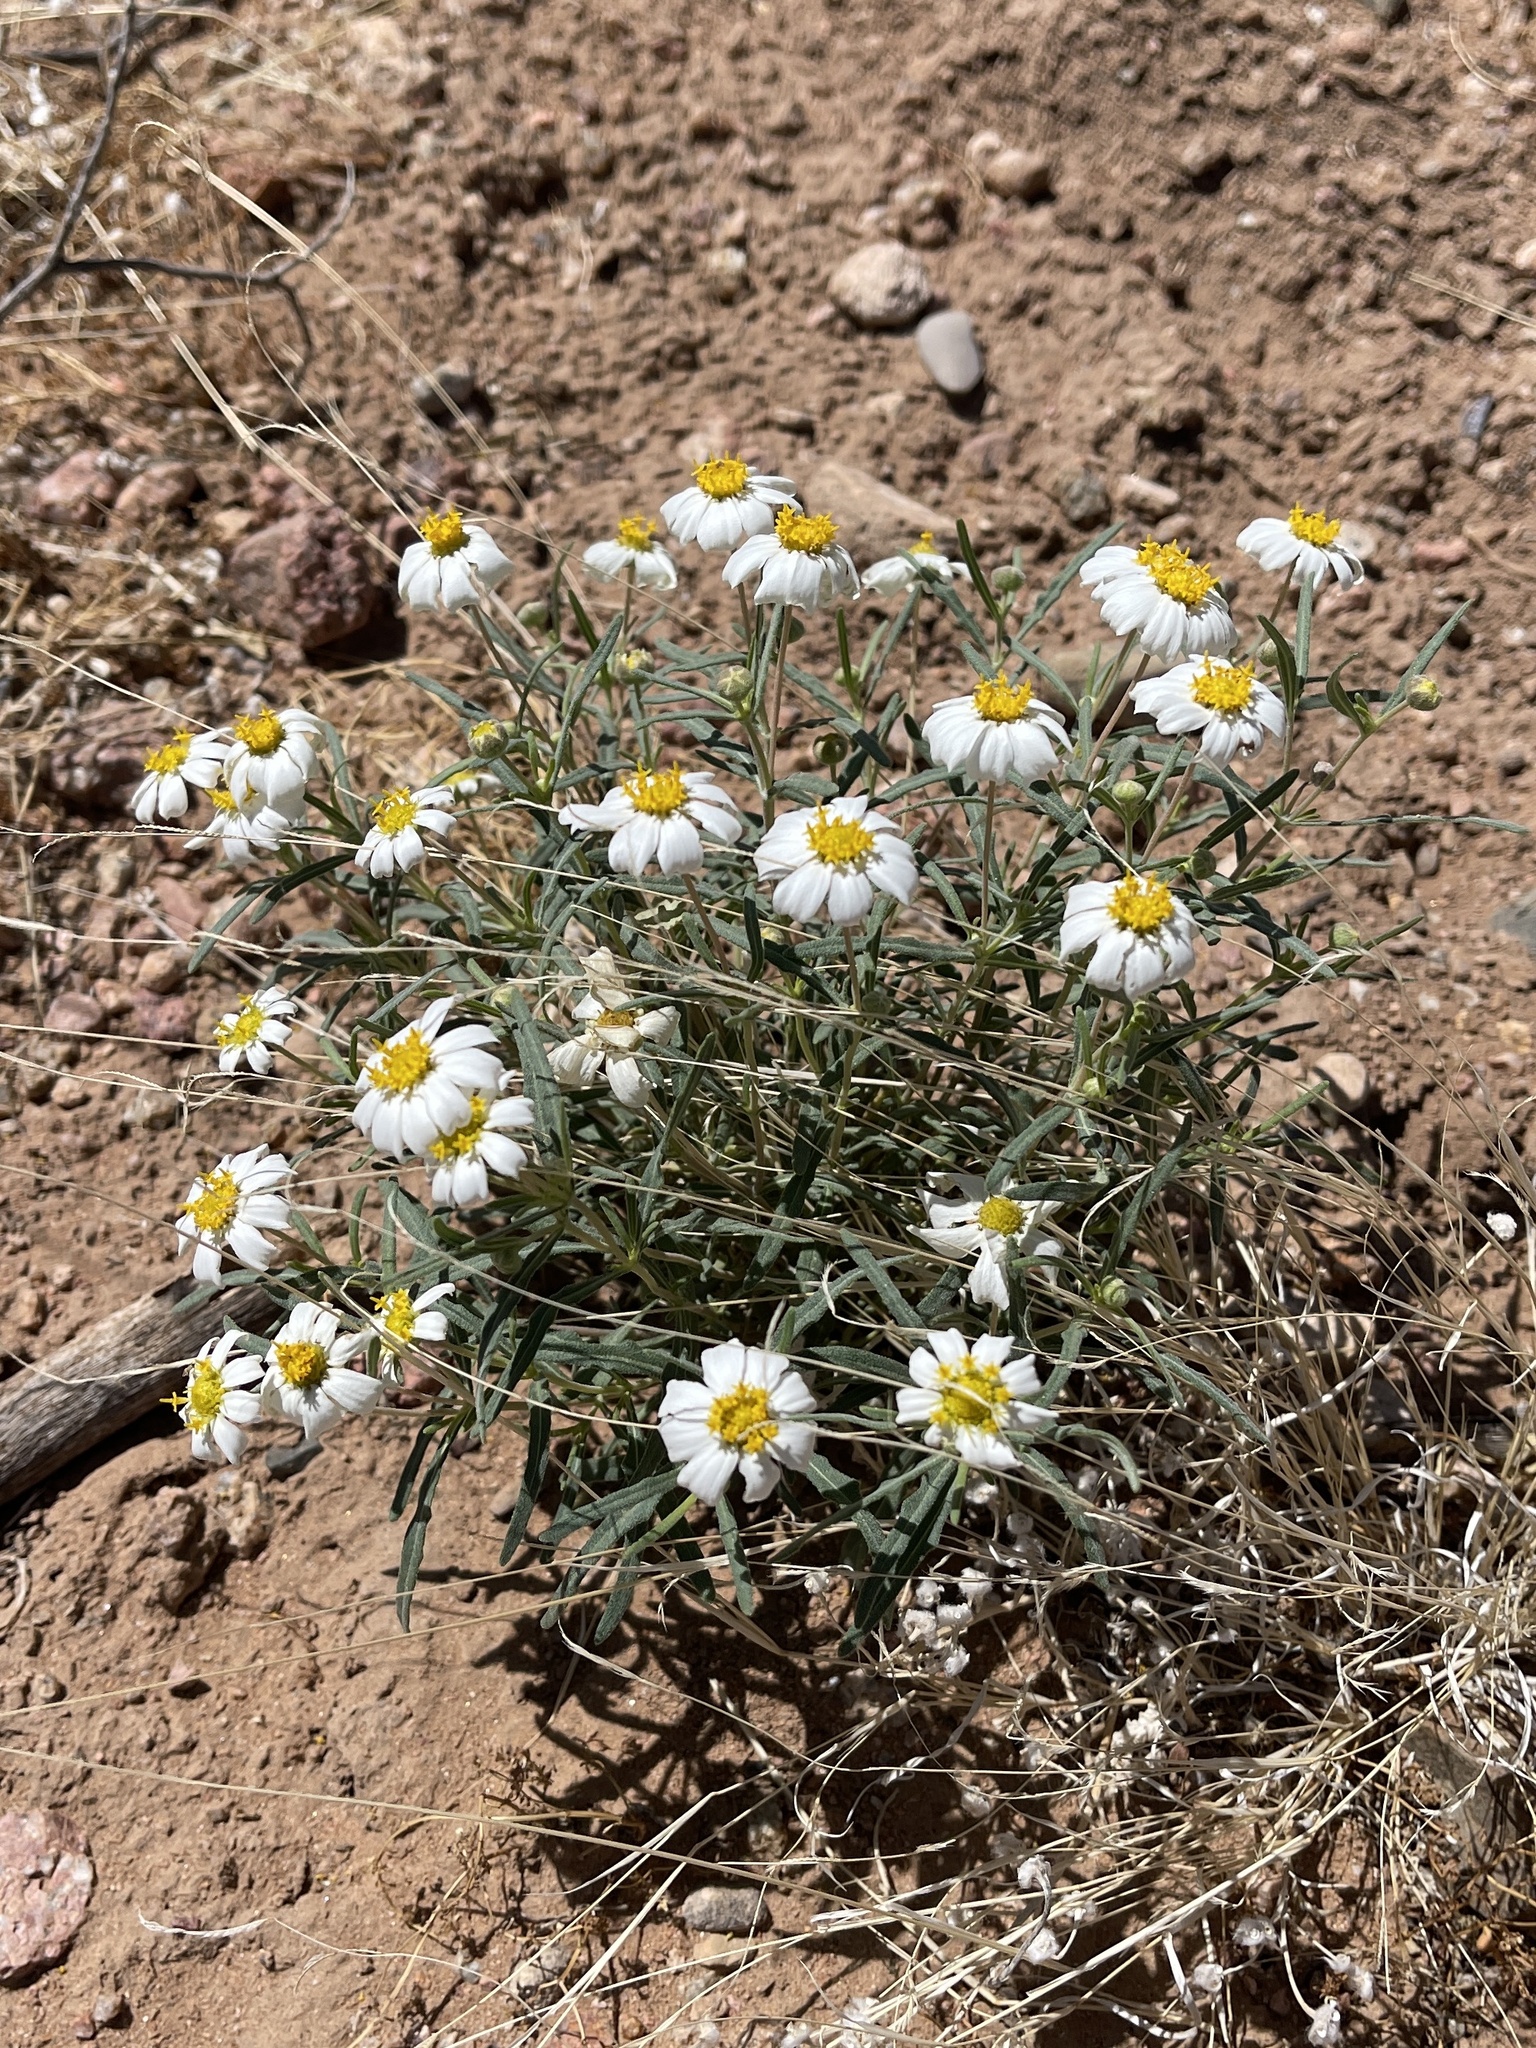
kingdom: Plantae
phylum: Tracheophyta
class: Magnoliopsida
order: Asterales
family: Asteraceae
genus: Melampodium
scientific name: Melampodium leucanthum
